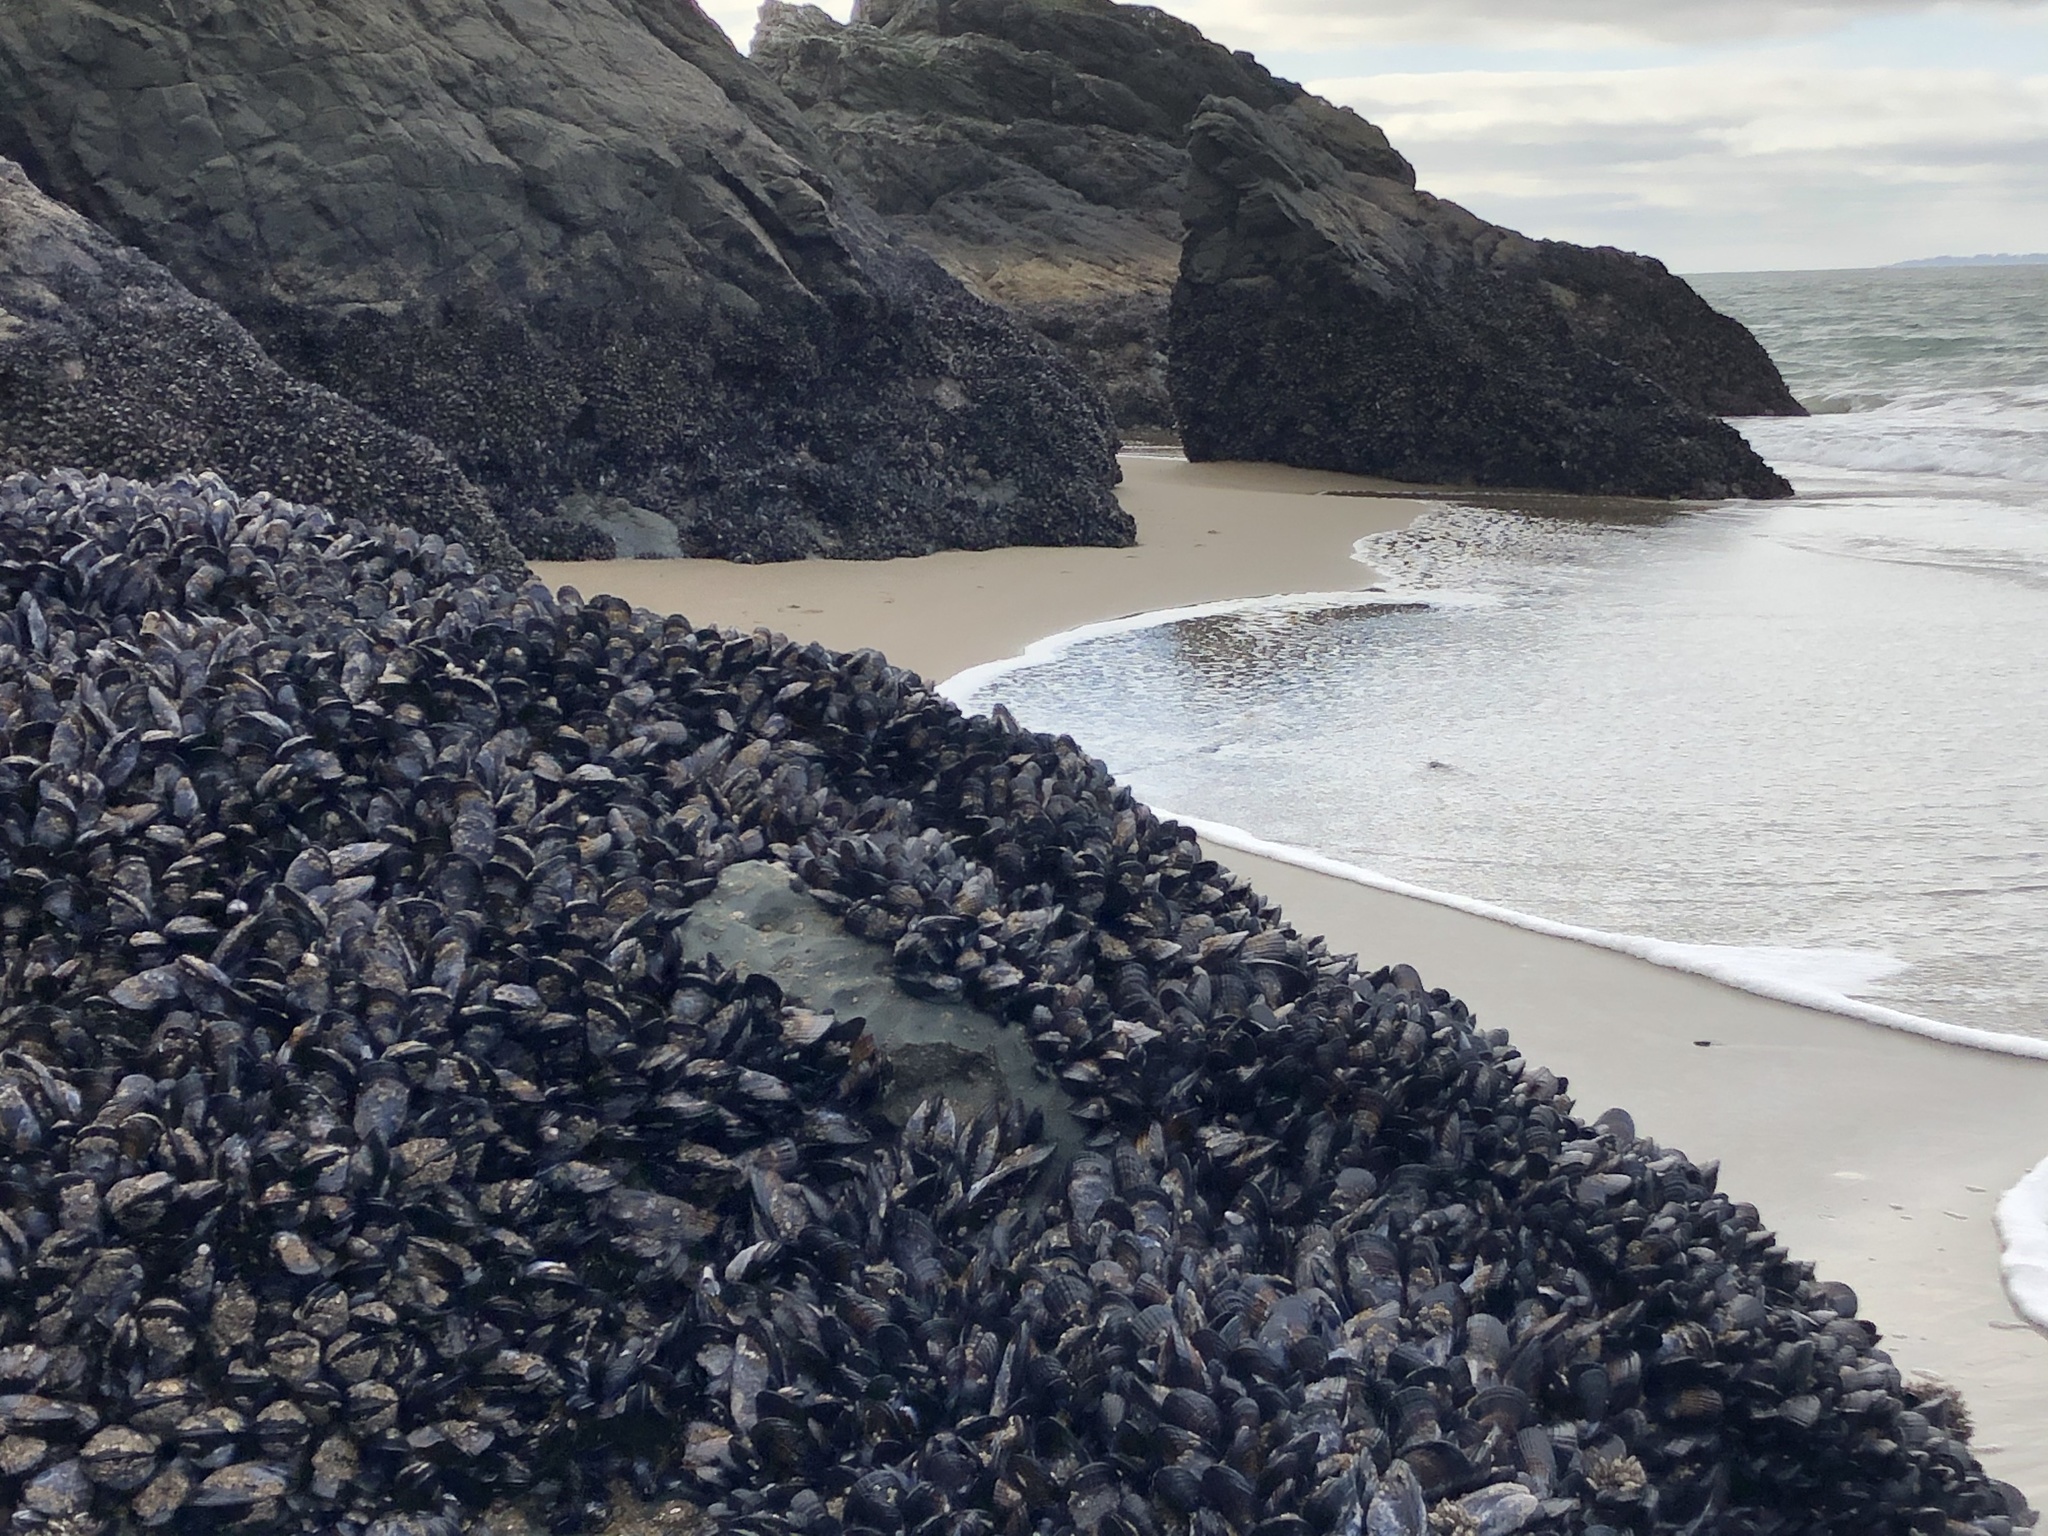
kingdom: Animalia
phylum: Mollusca
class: Bivalvia
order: Mytilida
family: Mytilidae
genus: Mytilus
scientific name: Mytilus californianus
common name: California mussel
